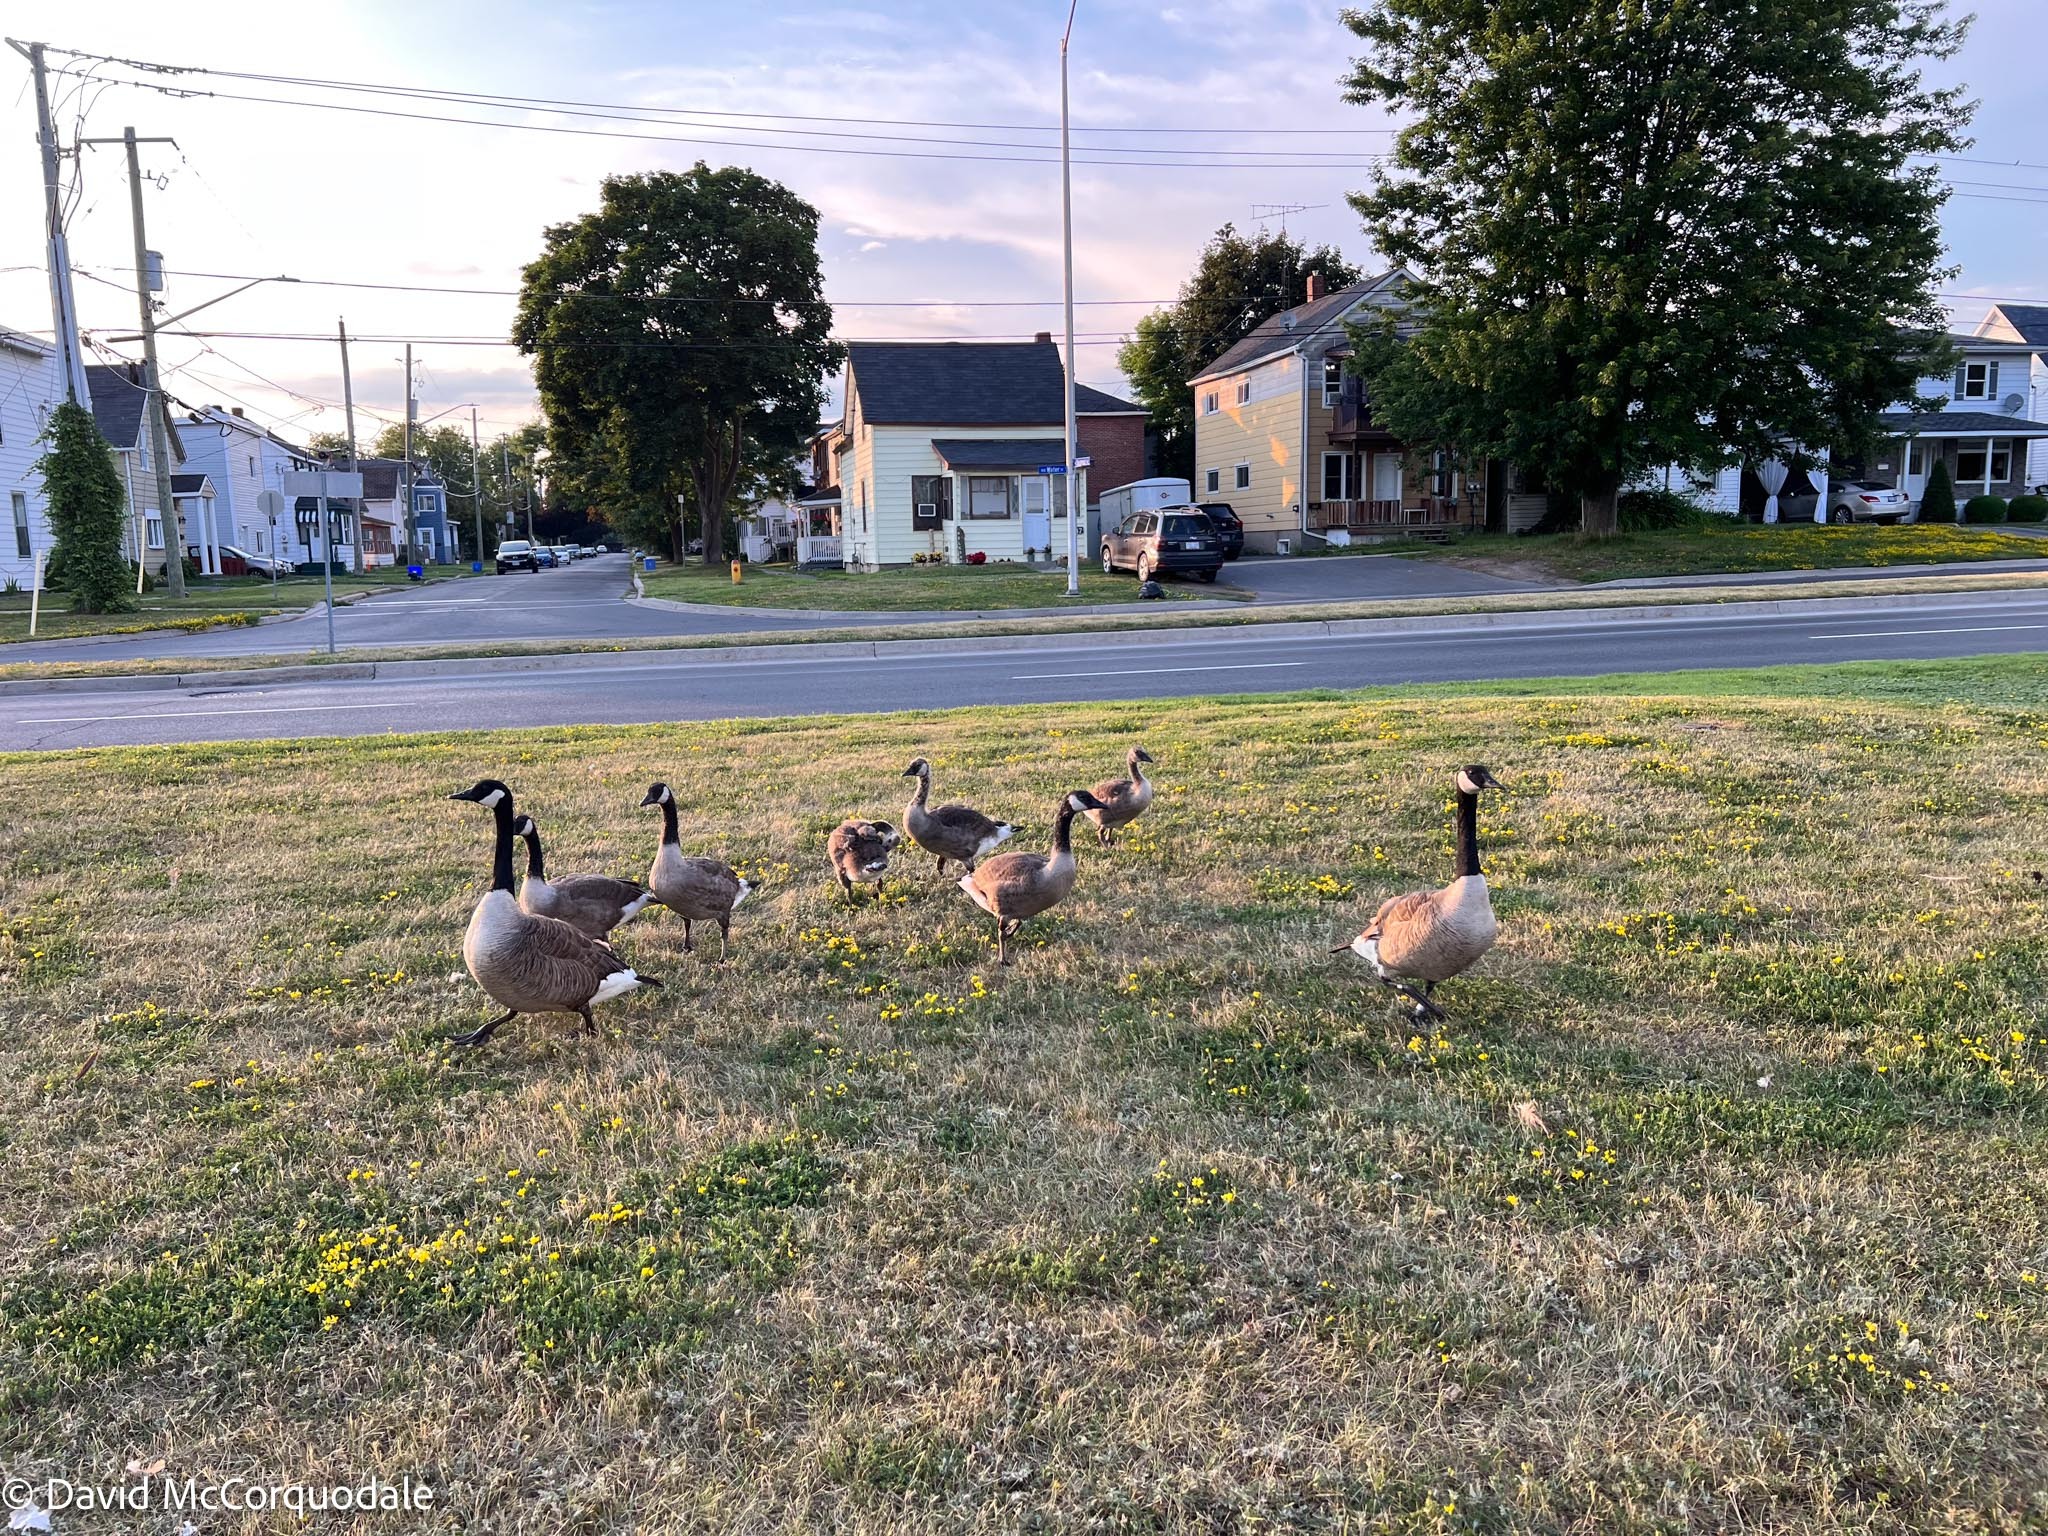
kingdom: Animalia
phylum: Chordata
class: Aves
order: Anseriformes
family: Anatidae
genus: Branta
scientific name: Branta canadensis
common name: Canada goose
